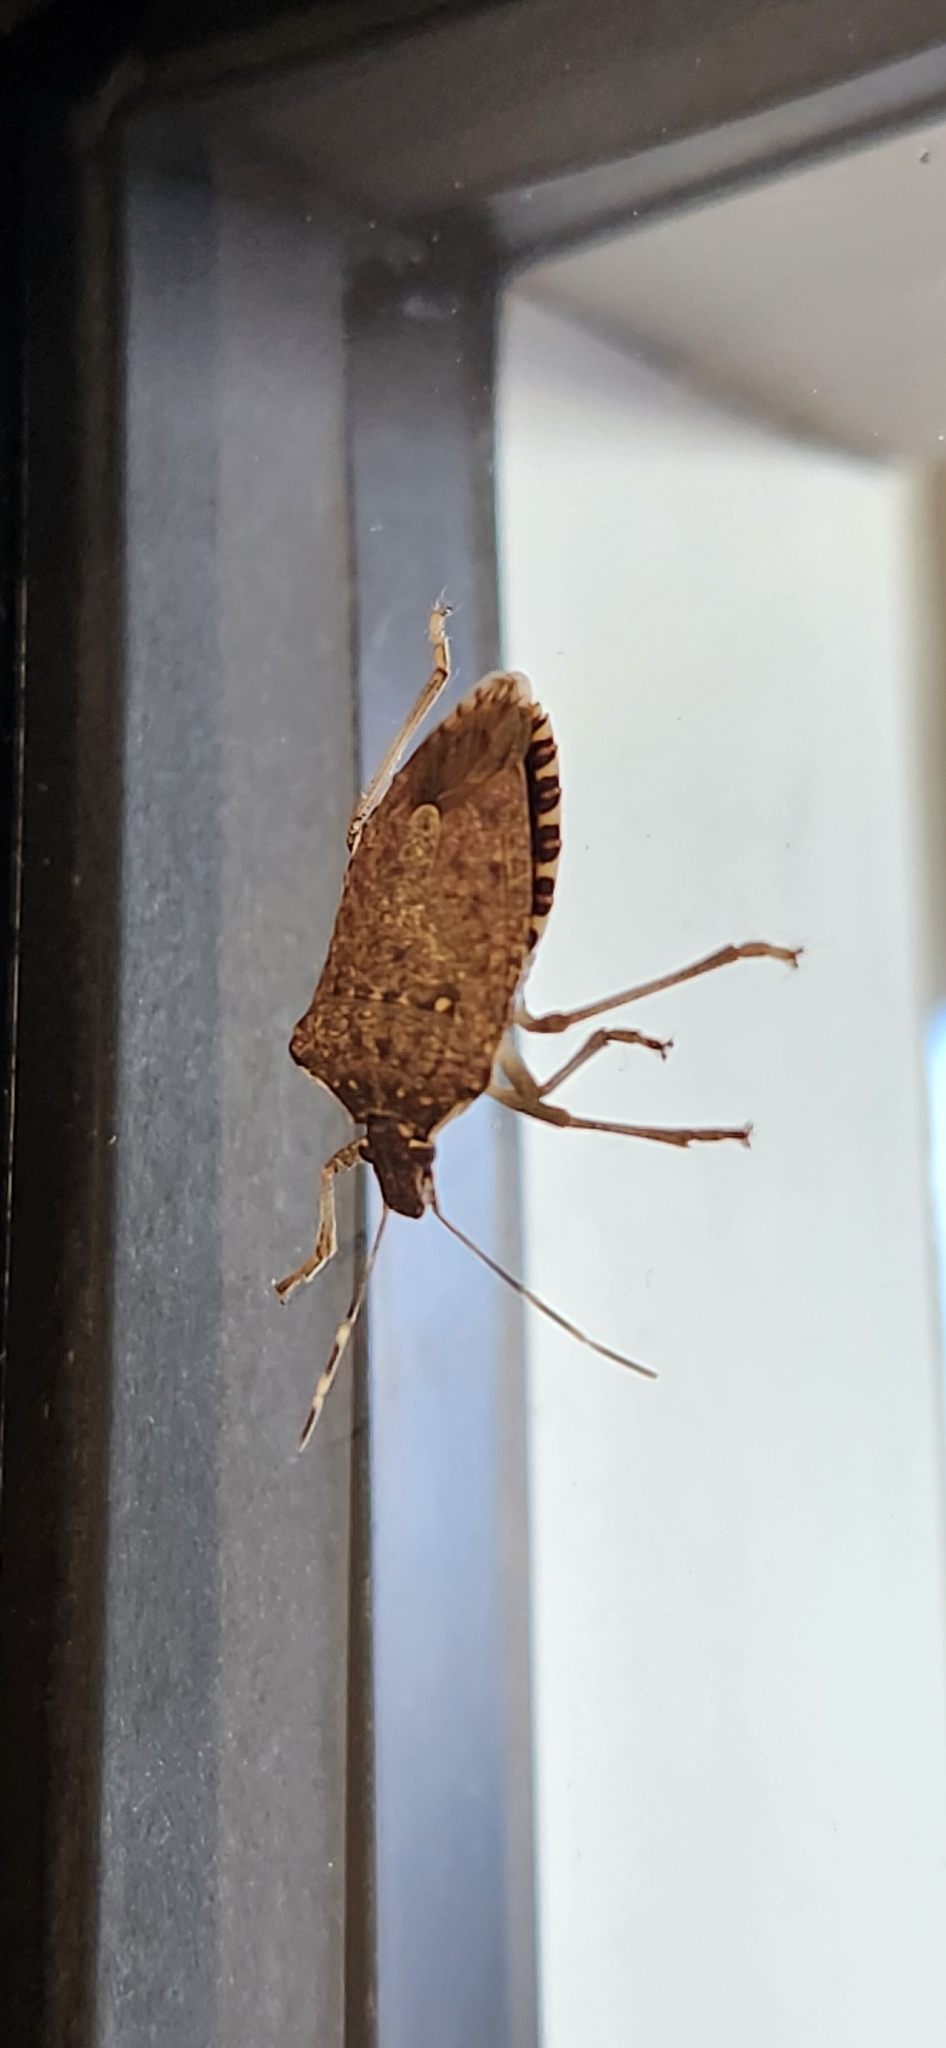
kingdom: Animalia
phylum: Arthropoda
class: Insecta
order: Hemiptera
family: Pentatomidae
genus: Halyomorpha
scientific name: Halyomorpha halys
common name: Brown marmorated stink bug
